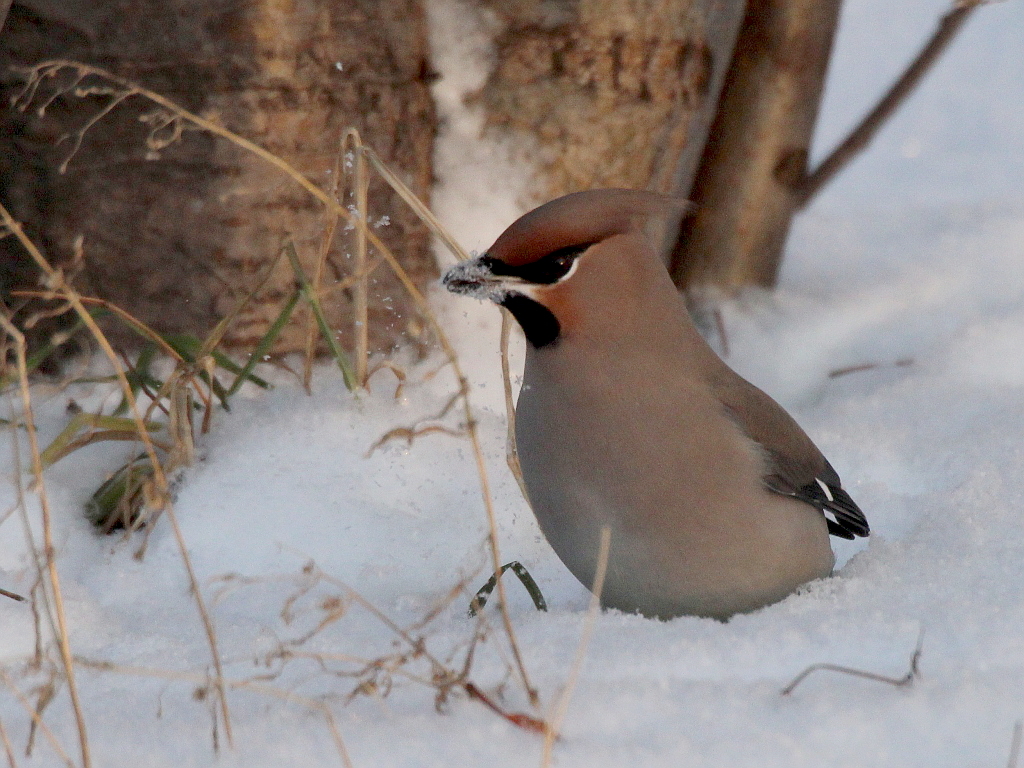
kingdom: Animalia
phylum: Chordata
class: Aves
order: Passeriformes
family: Bombycillidae
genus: Bombycilla
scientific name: Bombycilla garrulus
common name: Bohemian waxwing
